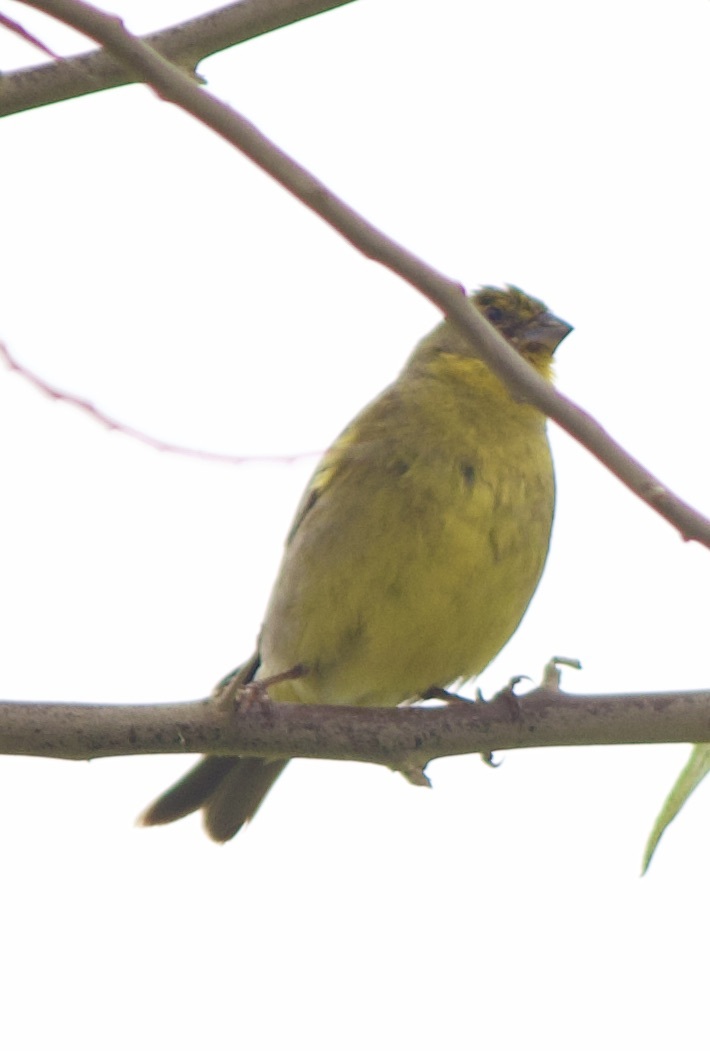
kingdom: Animalia
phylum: Chordata
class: Aves
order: Passeriformes
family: Thraupidae
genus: Sicalis
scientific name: Sicalis luteola
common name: Grassland yellow-finch
